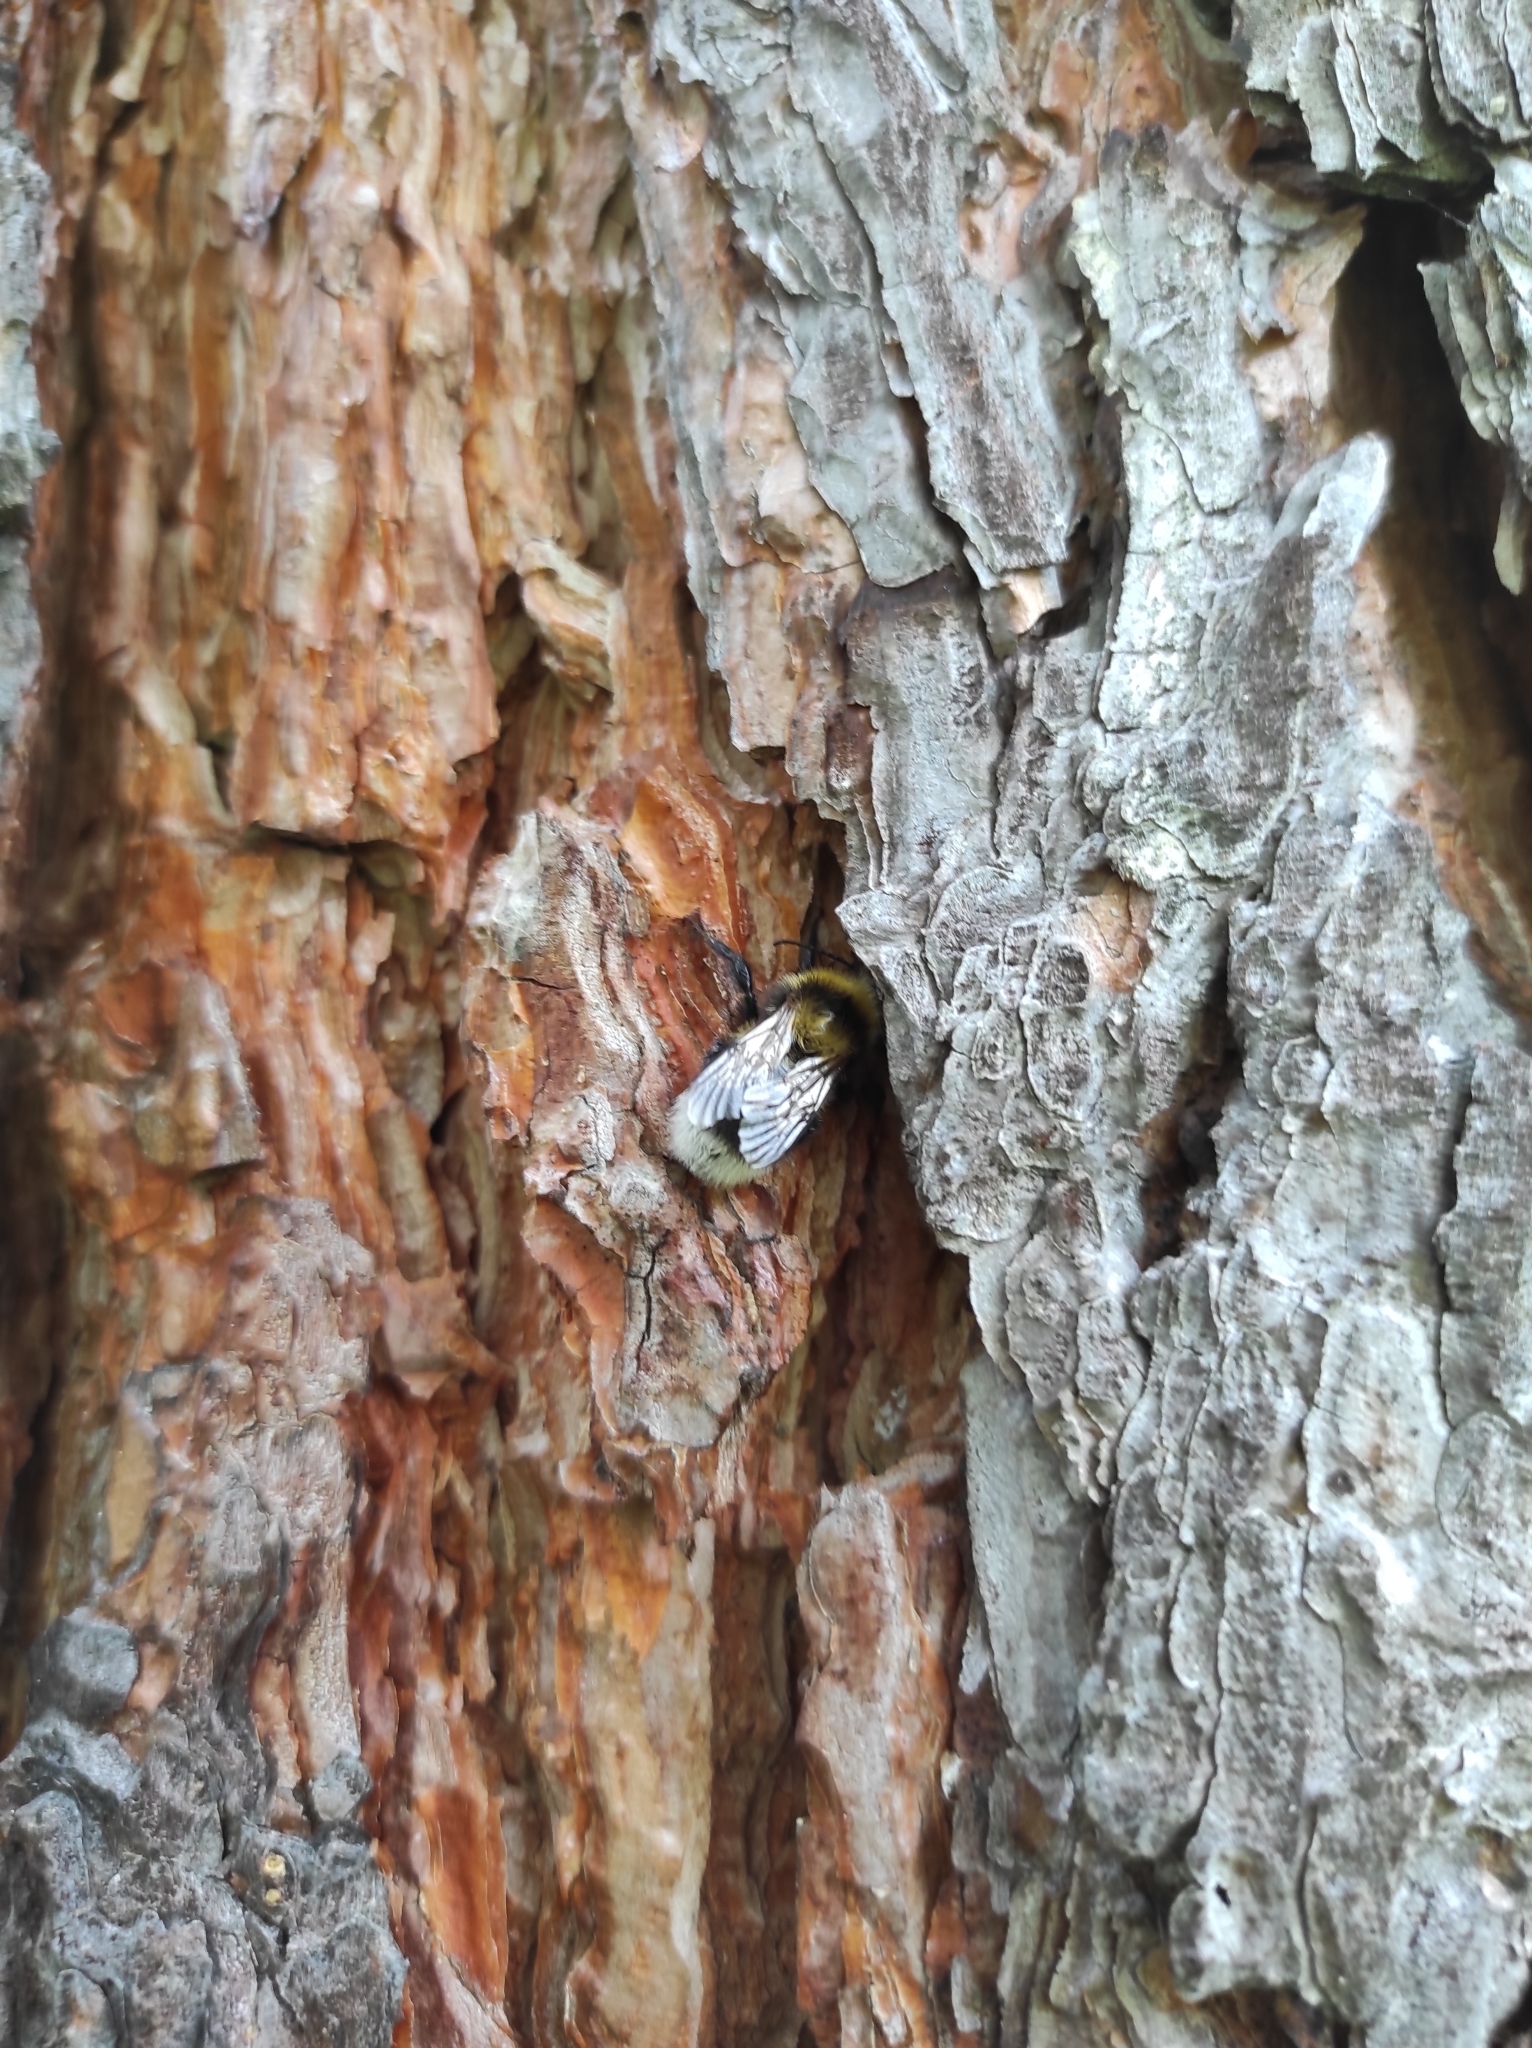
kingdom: Animalia
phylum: Arthropoda
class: Insecta
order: Hymenoptera
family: Apidae
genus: Bombus
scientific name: Bombus hortorum
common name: Garden bumblebee
